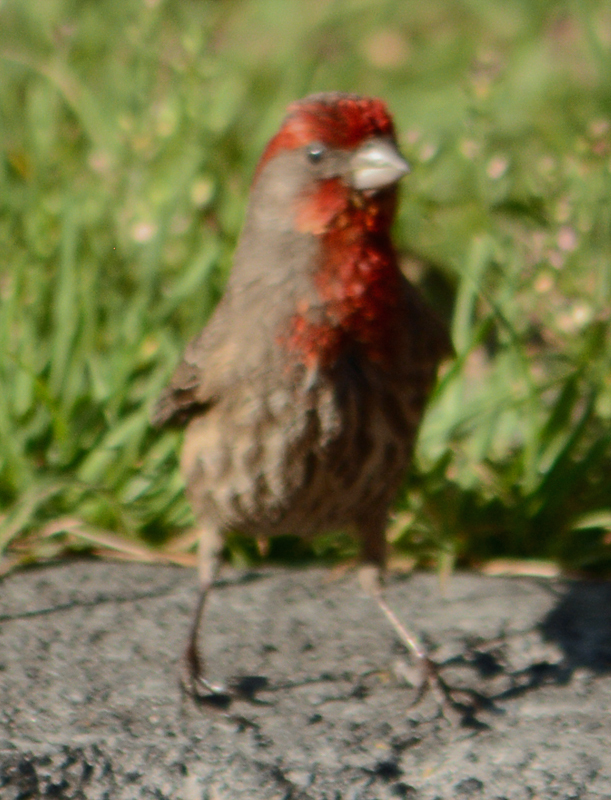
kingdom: Animalia
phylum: Chordata
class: Aves
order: Passeriformes
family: Fringillidae
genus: Haemorhous
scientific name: Haemorhous mexicanus
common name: House finch
